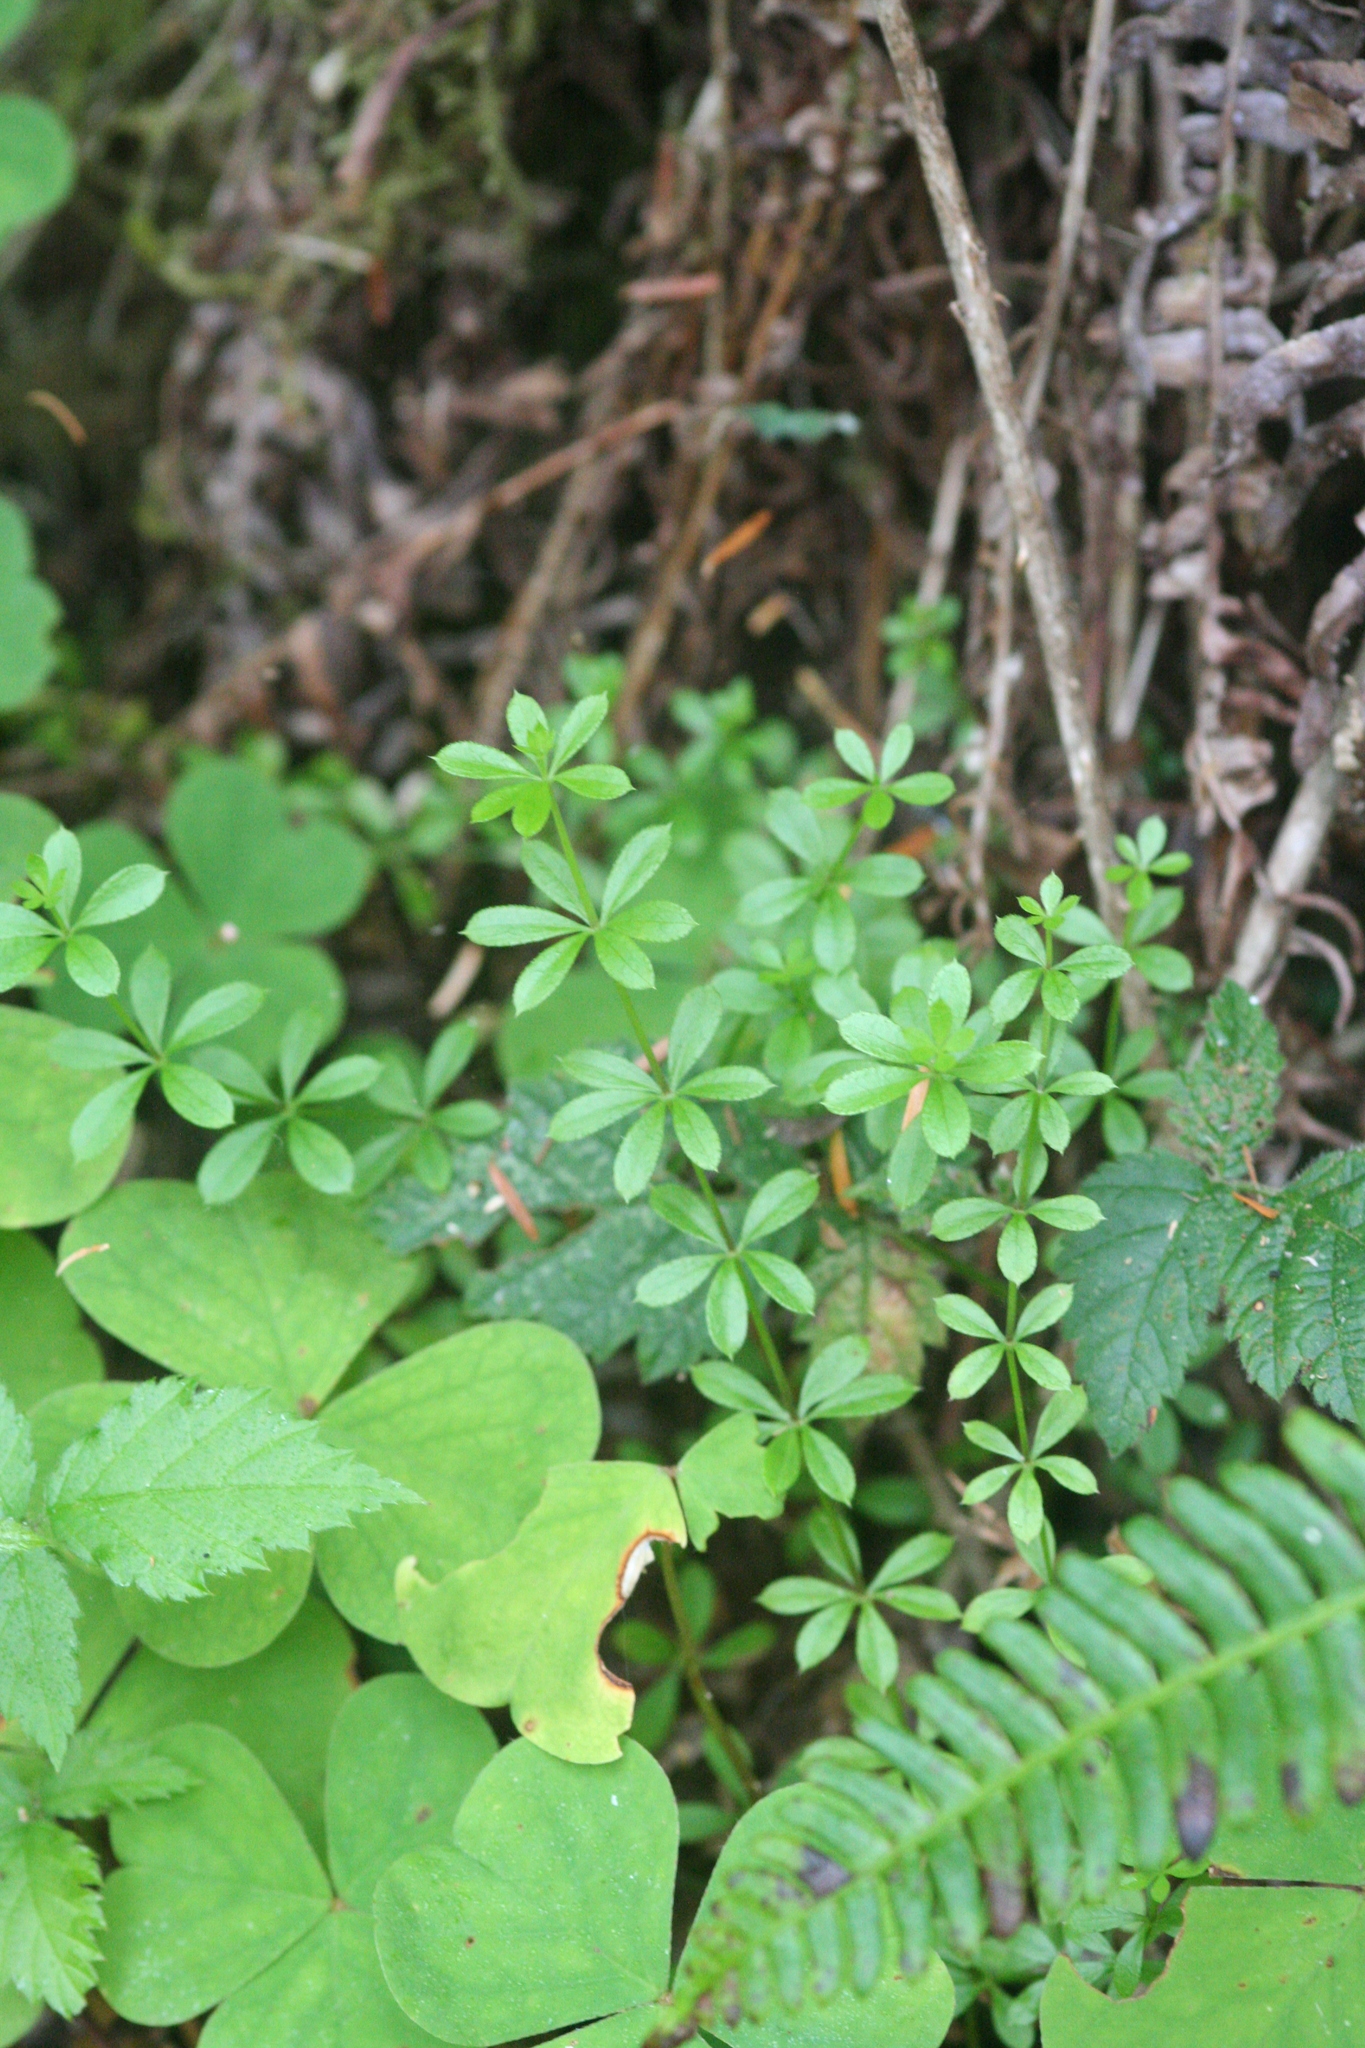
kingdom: Plantae
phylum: Tracheophyta
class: Magnoliopsida
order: Gentianales
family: Rubiaceae
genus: Galium
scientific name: Galium triflorum
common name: Fragrant bedstraw
